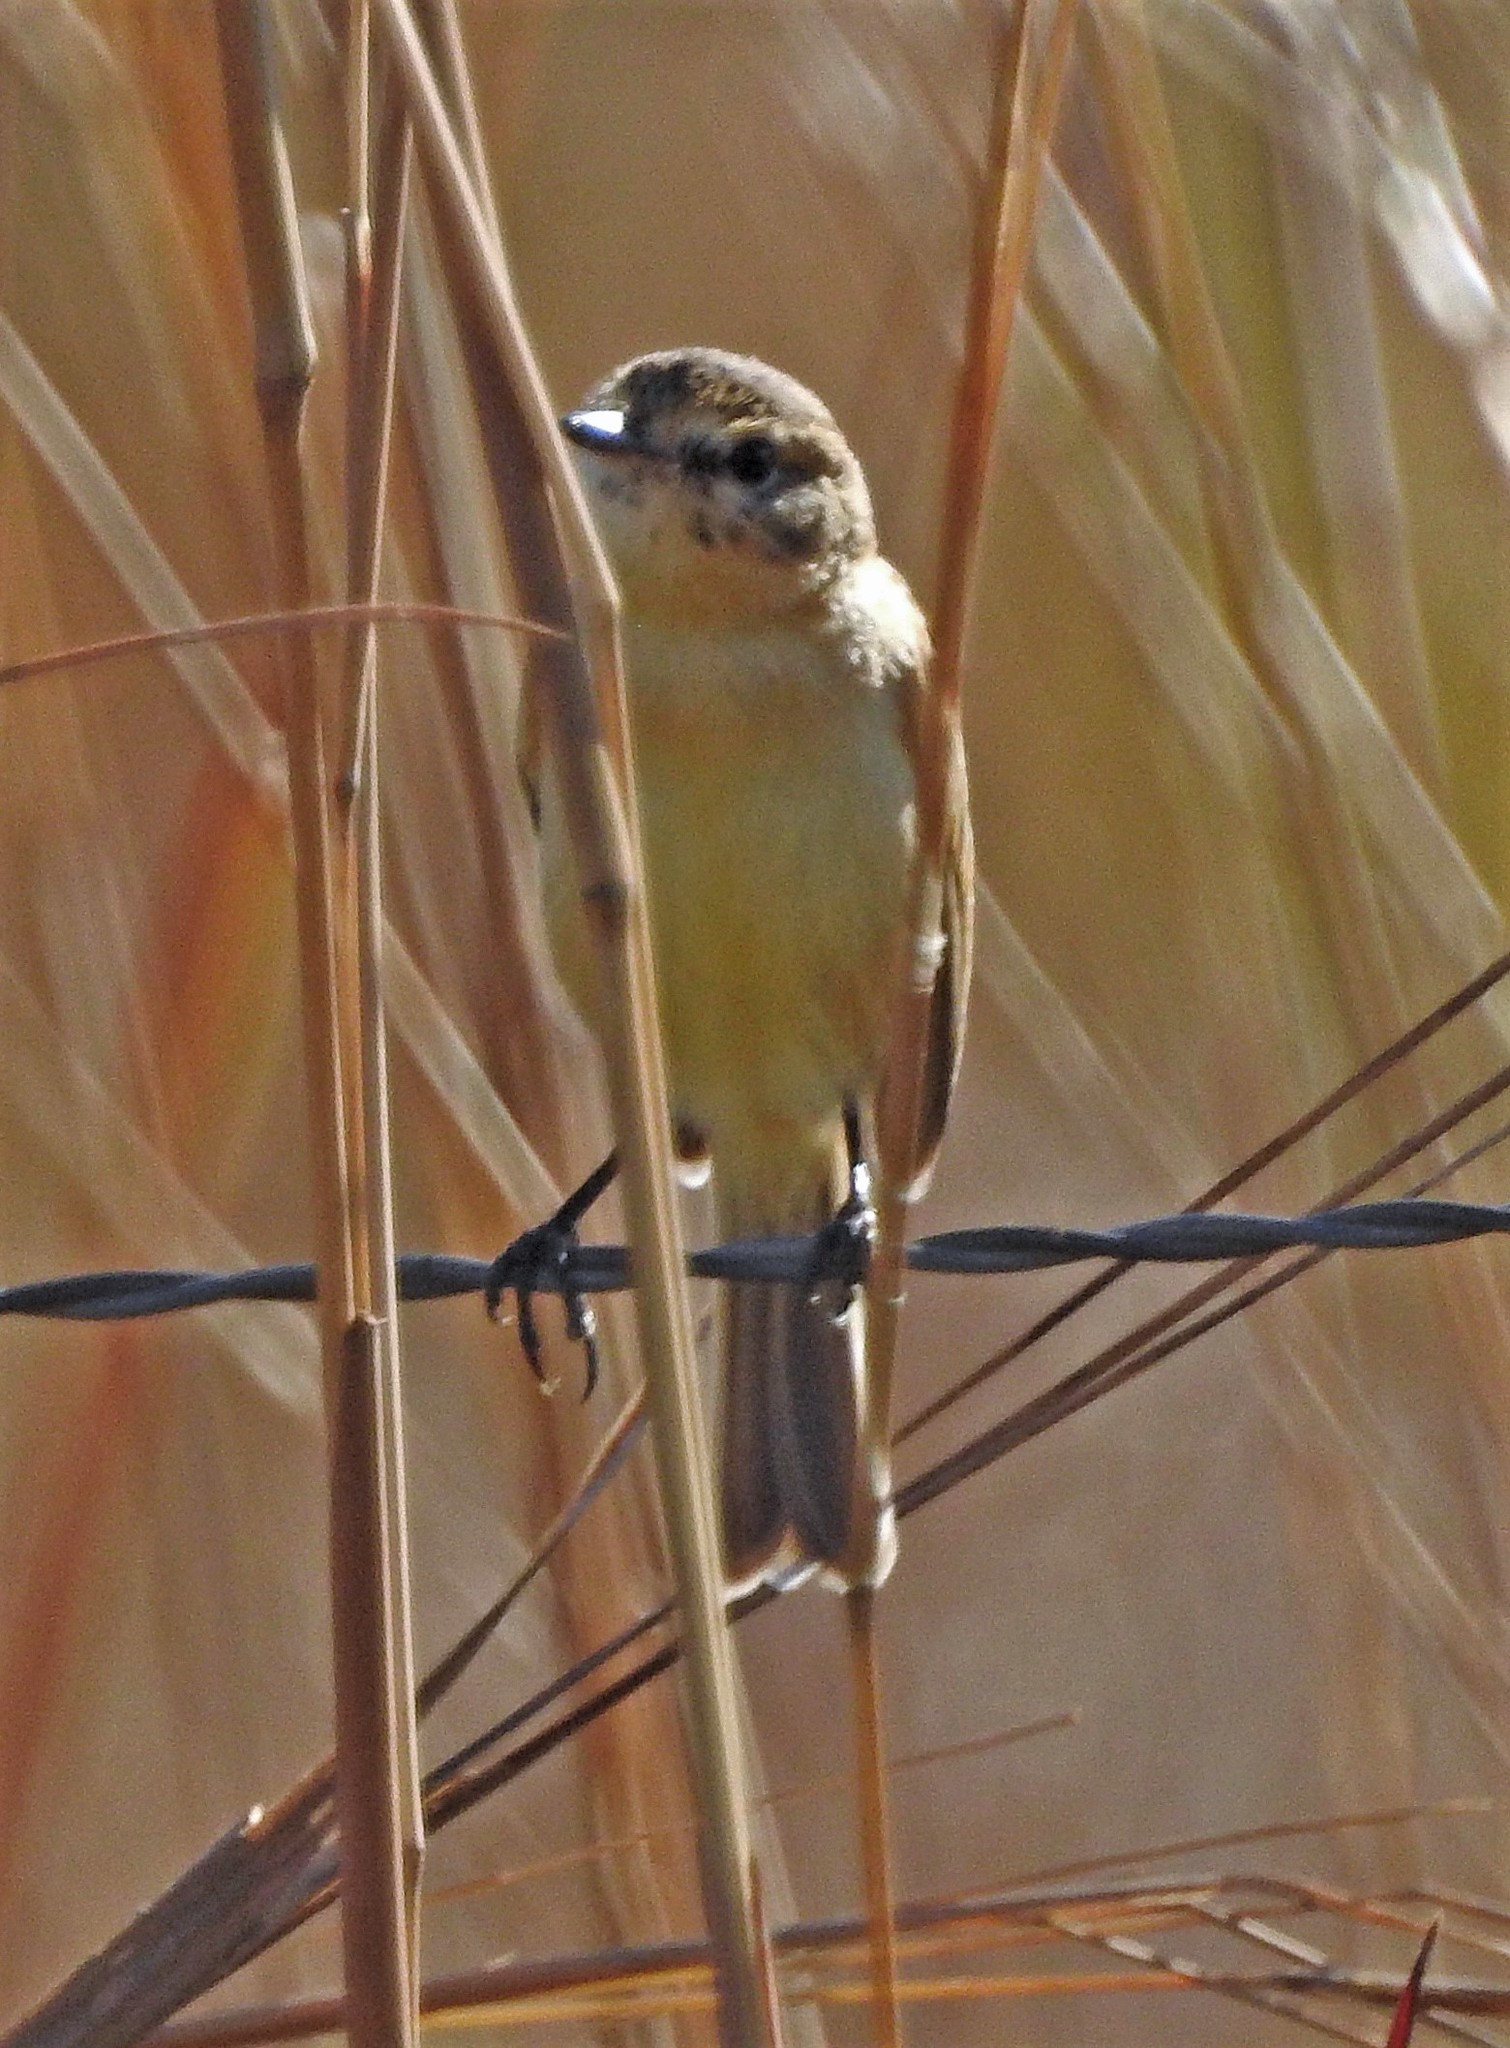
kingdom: Animalia
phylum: Chordata
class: Aves
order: Passeriformes
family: Tyrannidae
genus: Polystictus
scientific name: Polystictus pectoralis
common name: Bearded tachuri
